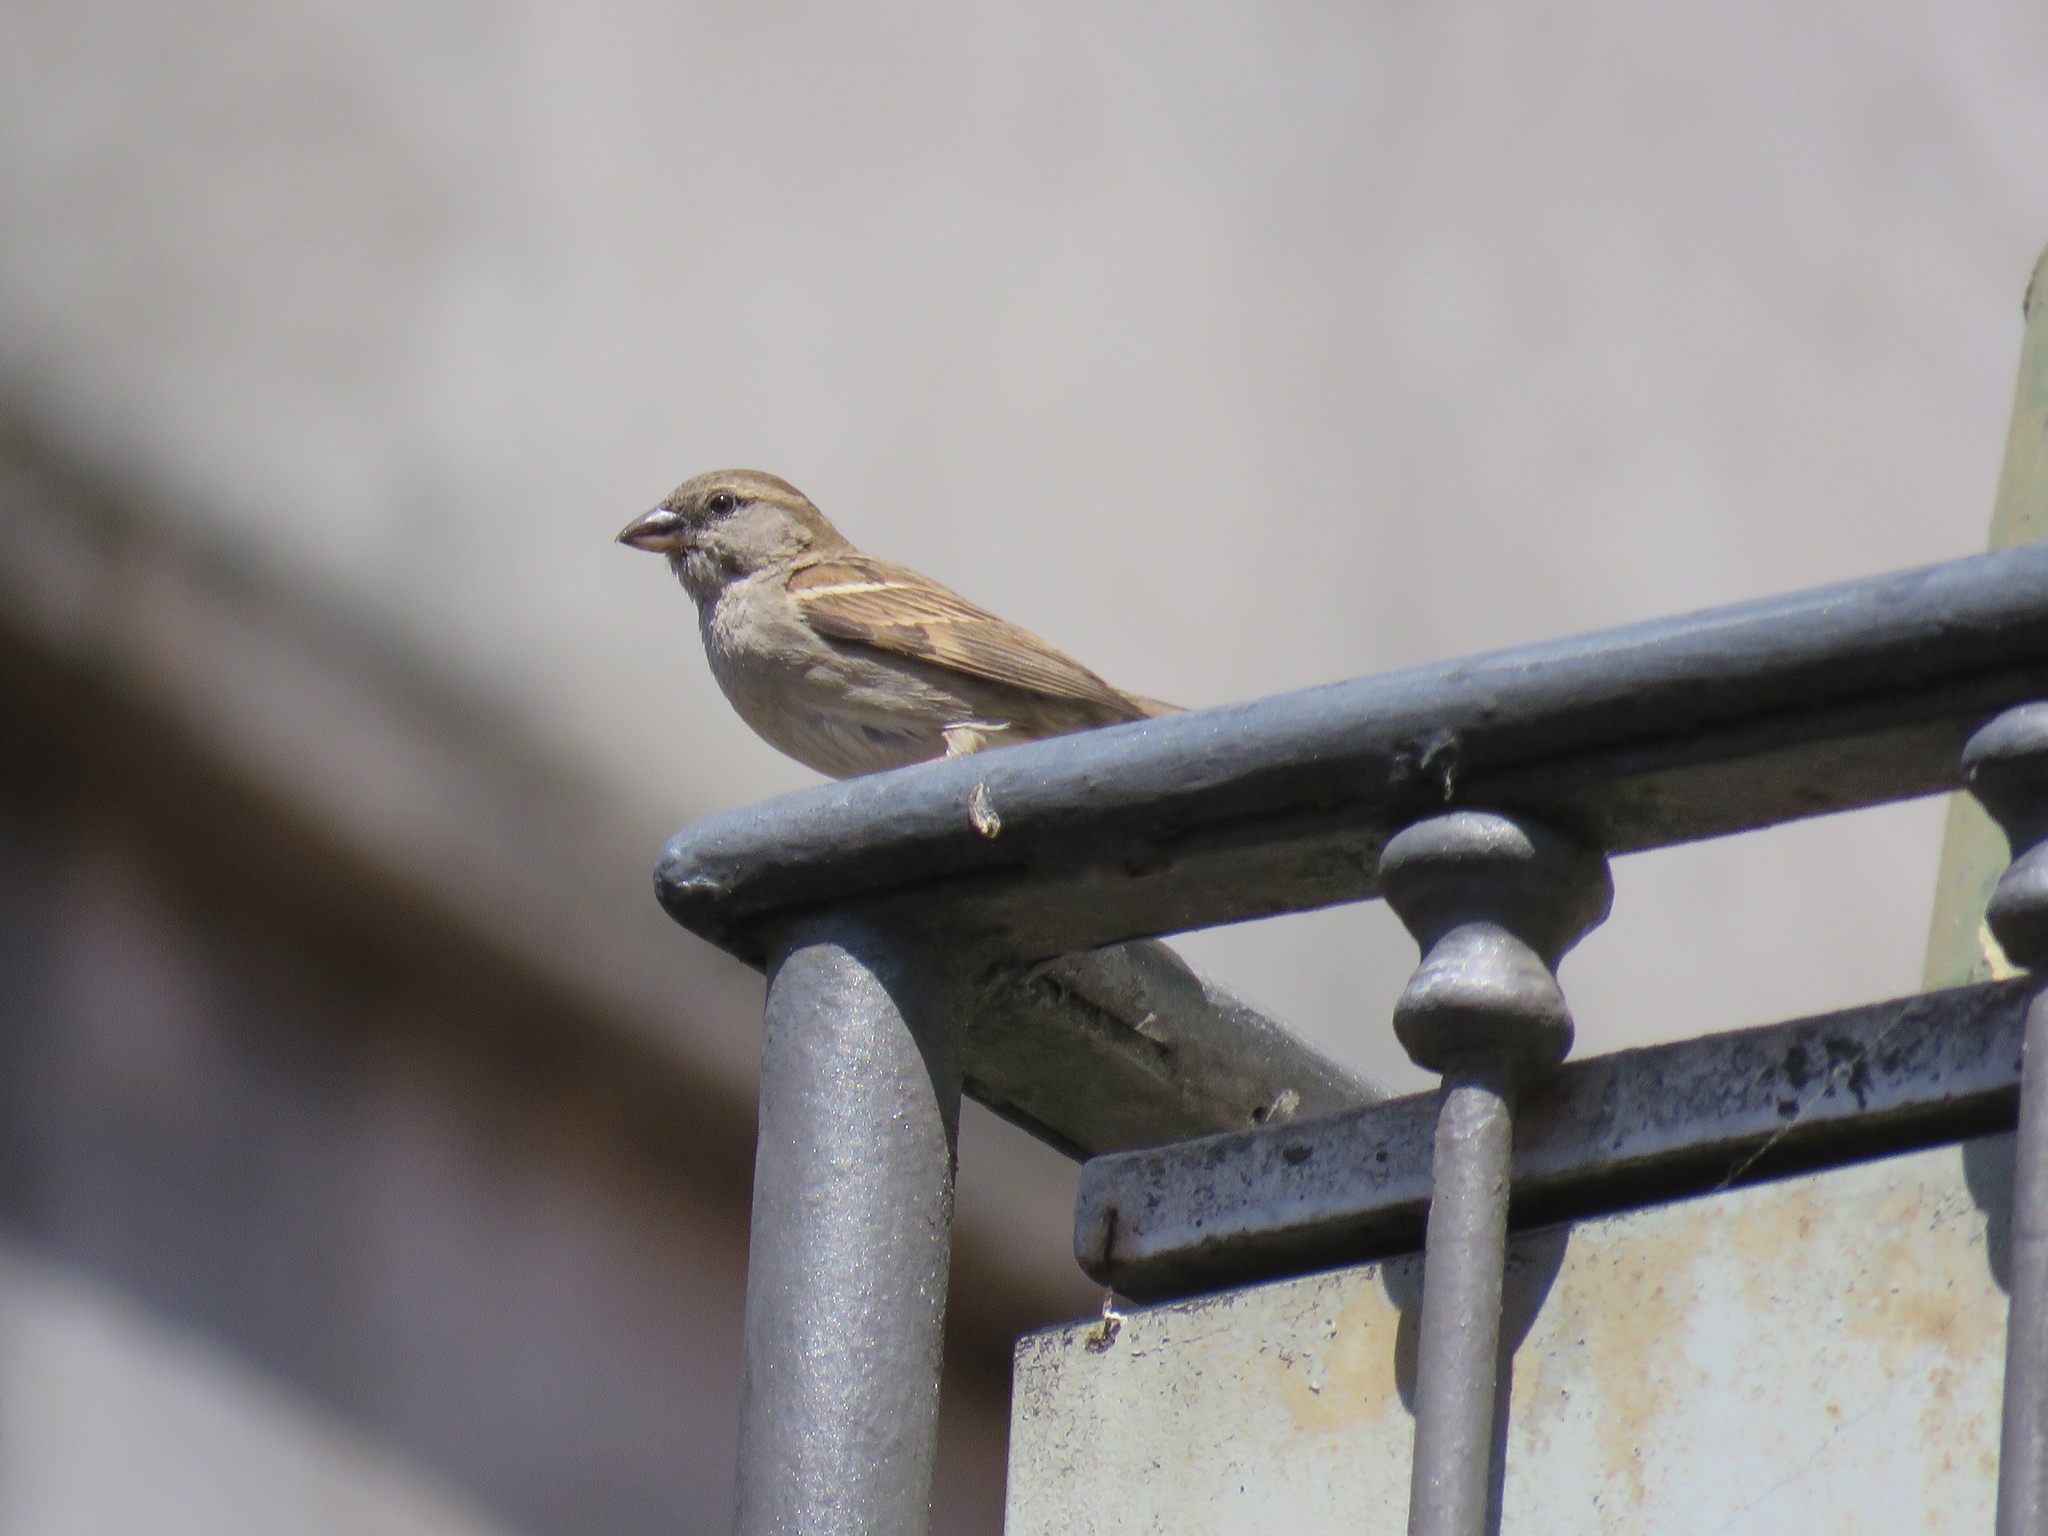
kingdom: Animalia
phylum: Chordata
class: Aves
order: Passeriformes
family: Passeridae
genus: Passer
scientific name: Passer italiae
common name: Italian sparrow
